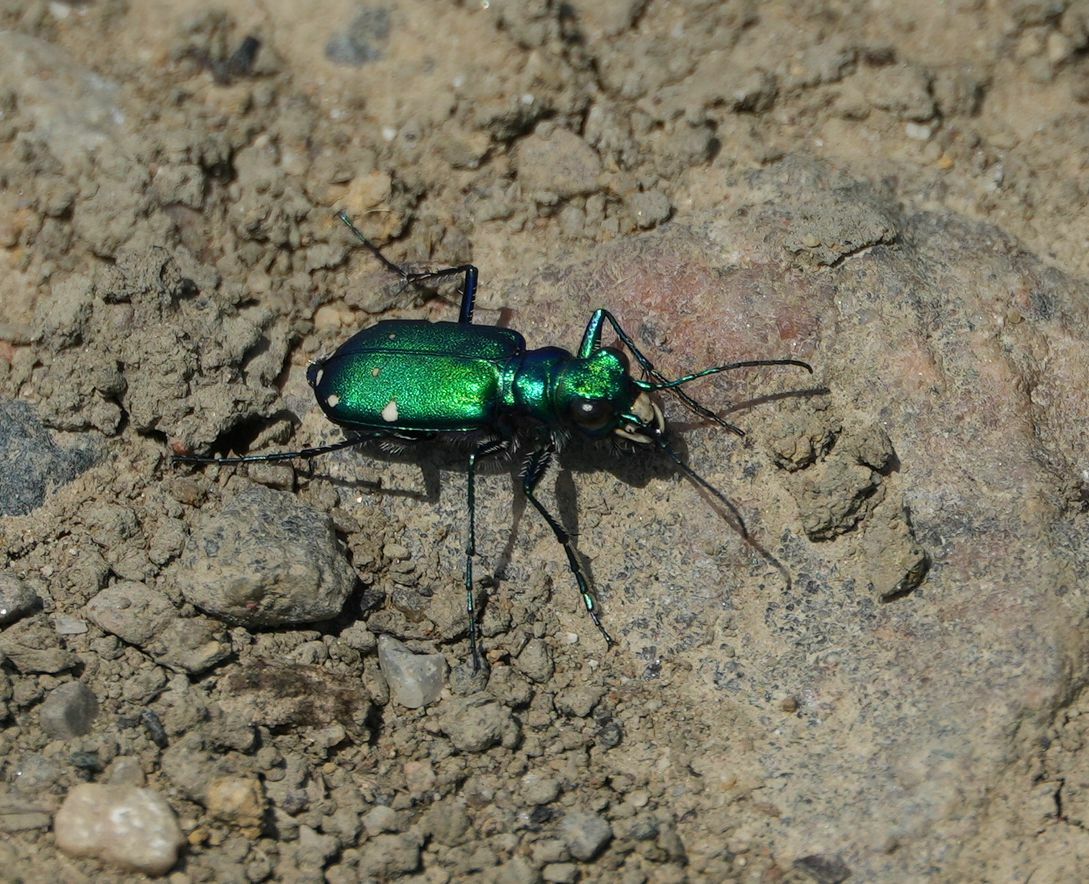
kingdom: Animalia
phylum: Arthropoda
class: Insecta
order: Coleoptera
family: Carabidae
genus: Cicindela
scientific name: Cicindela sexguttata
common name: Six-spotted tiger beetle
